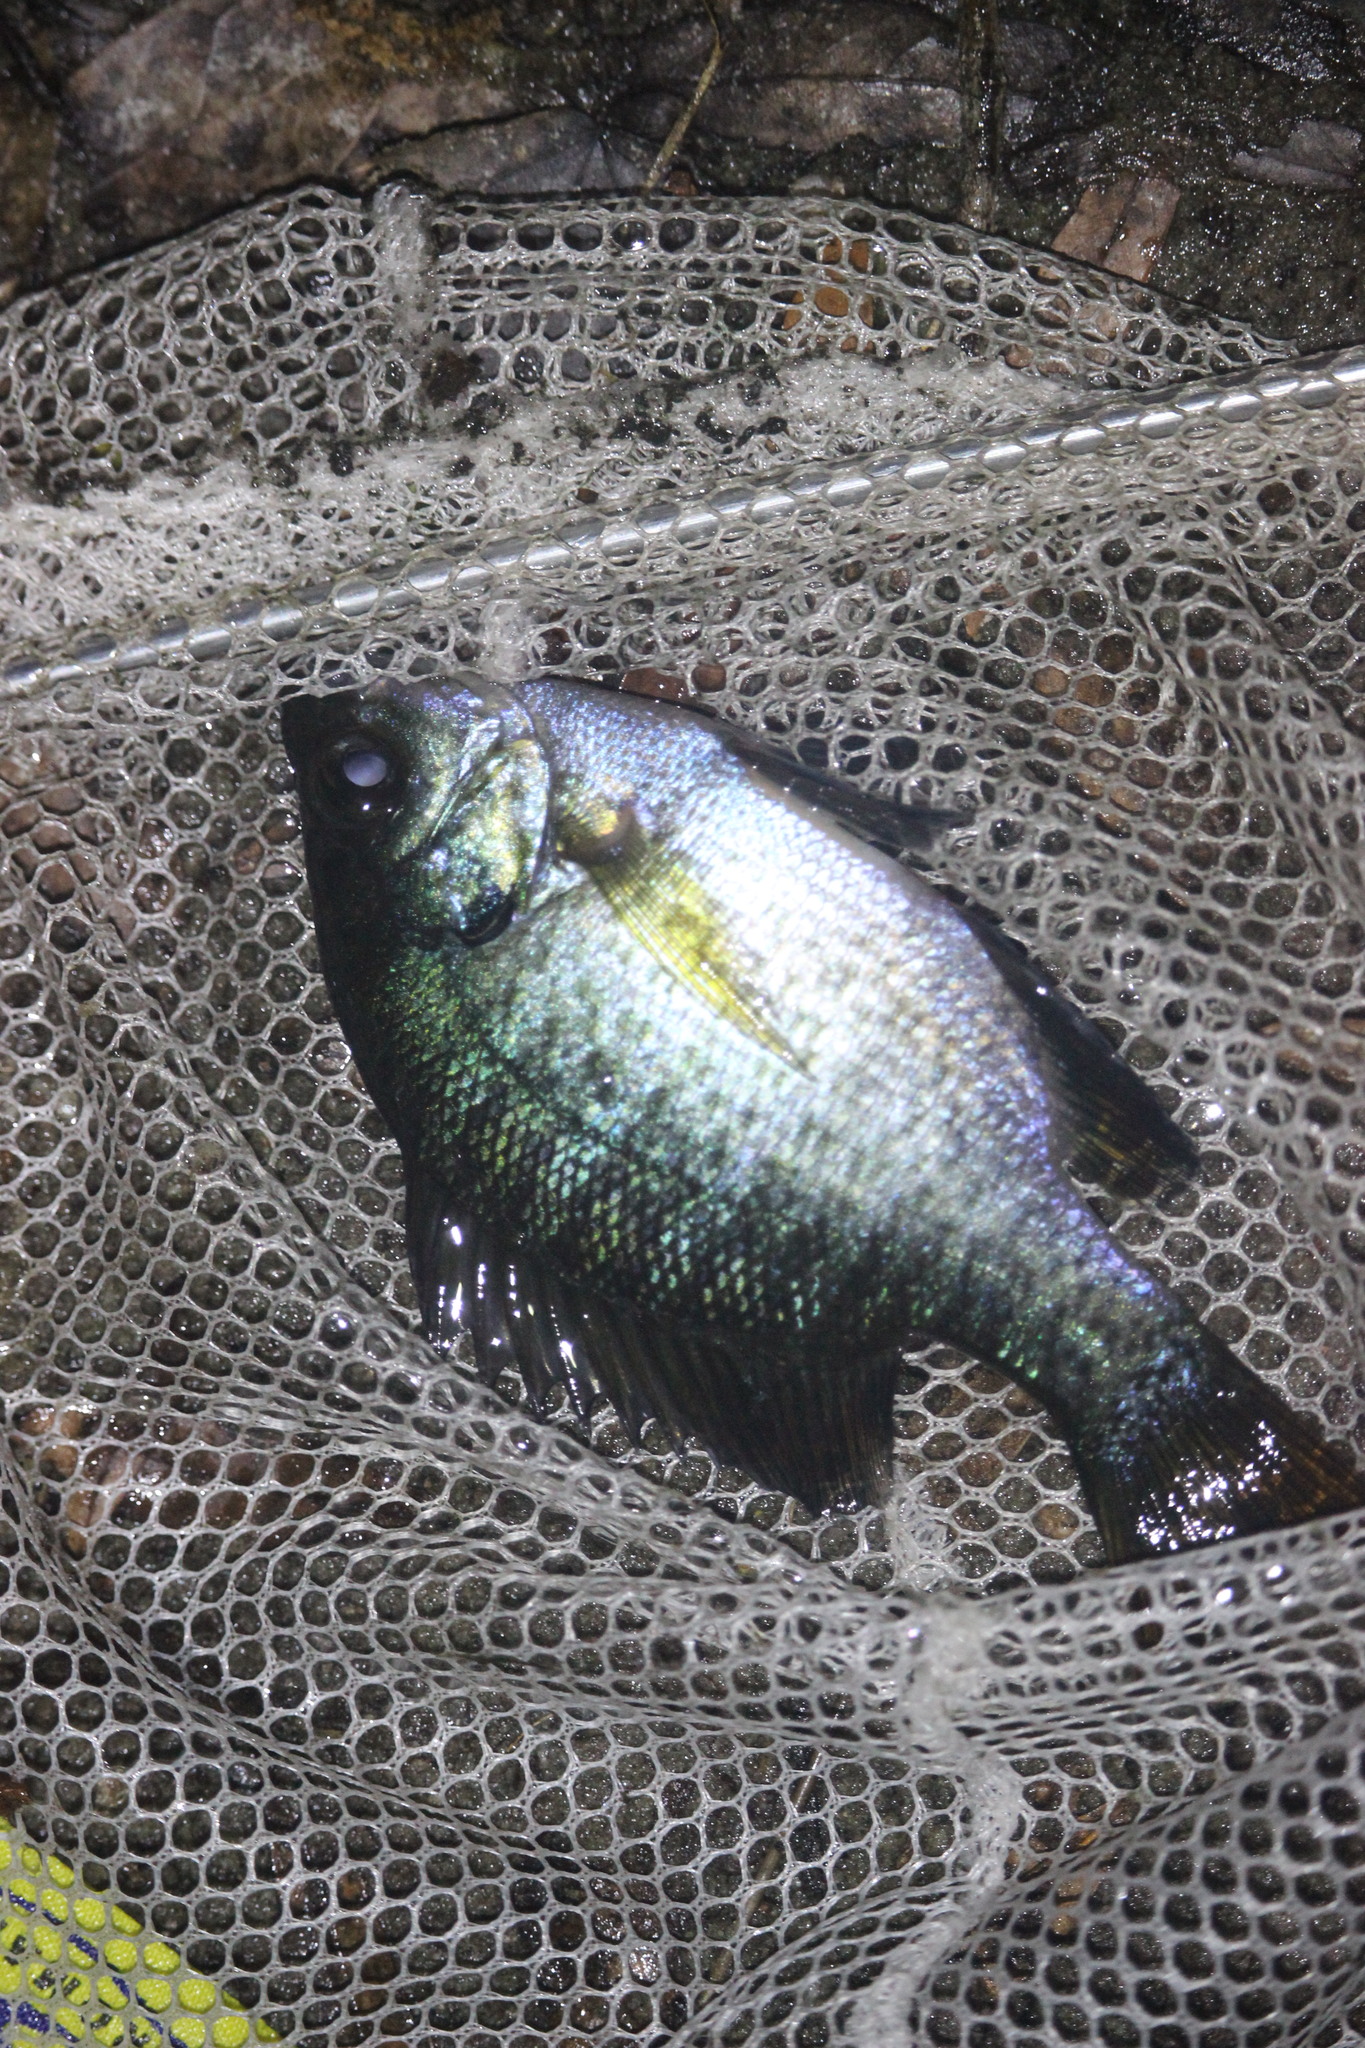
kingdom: Animalia
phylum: Chordata
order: Perciformes
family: Centrarchidae
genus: Lepomis
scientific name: Lepomis macrochirus
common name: Bluegill
